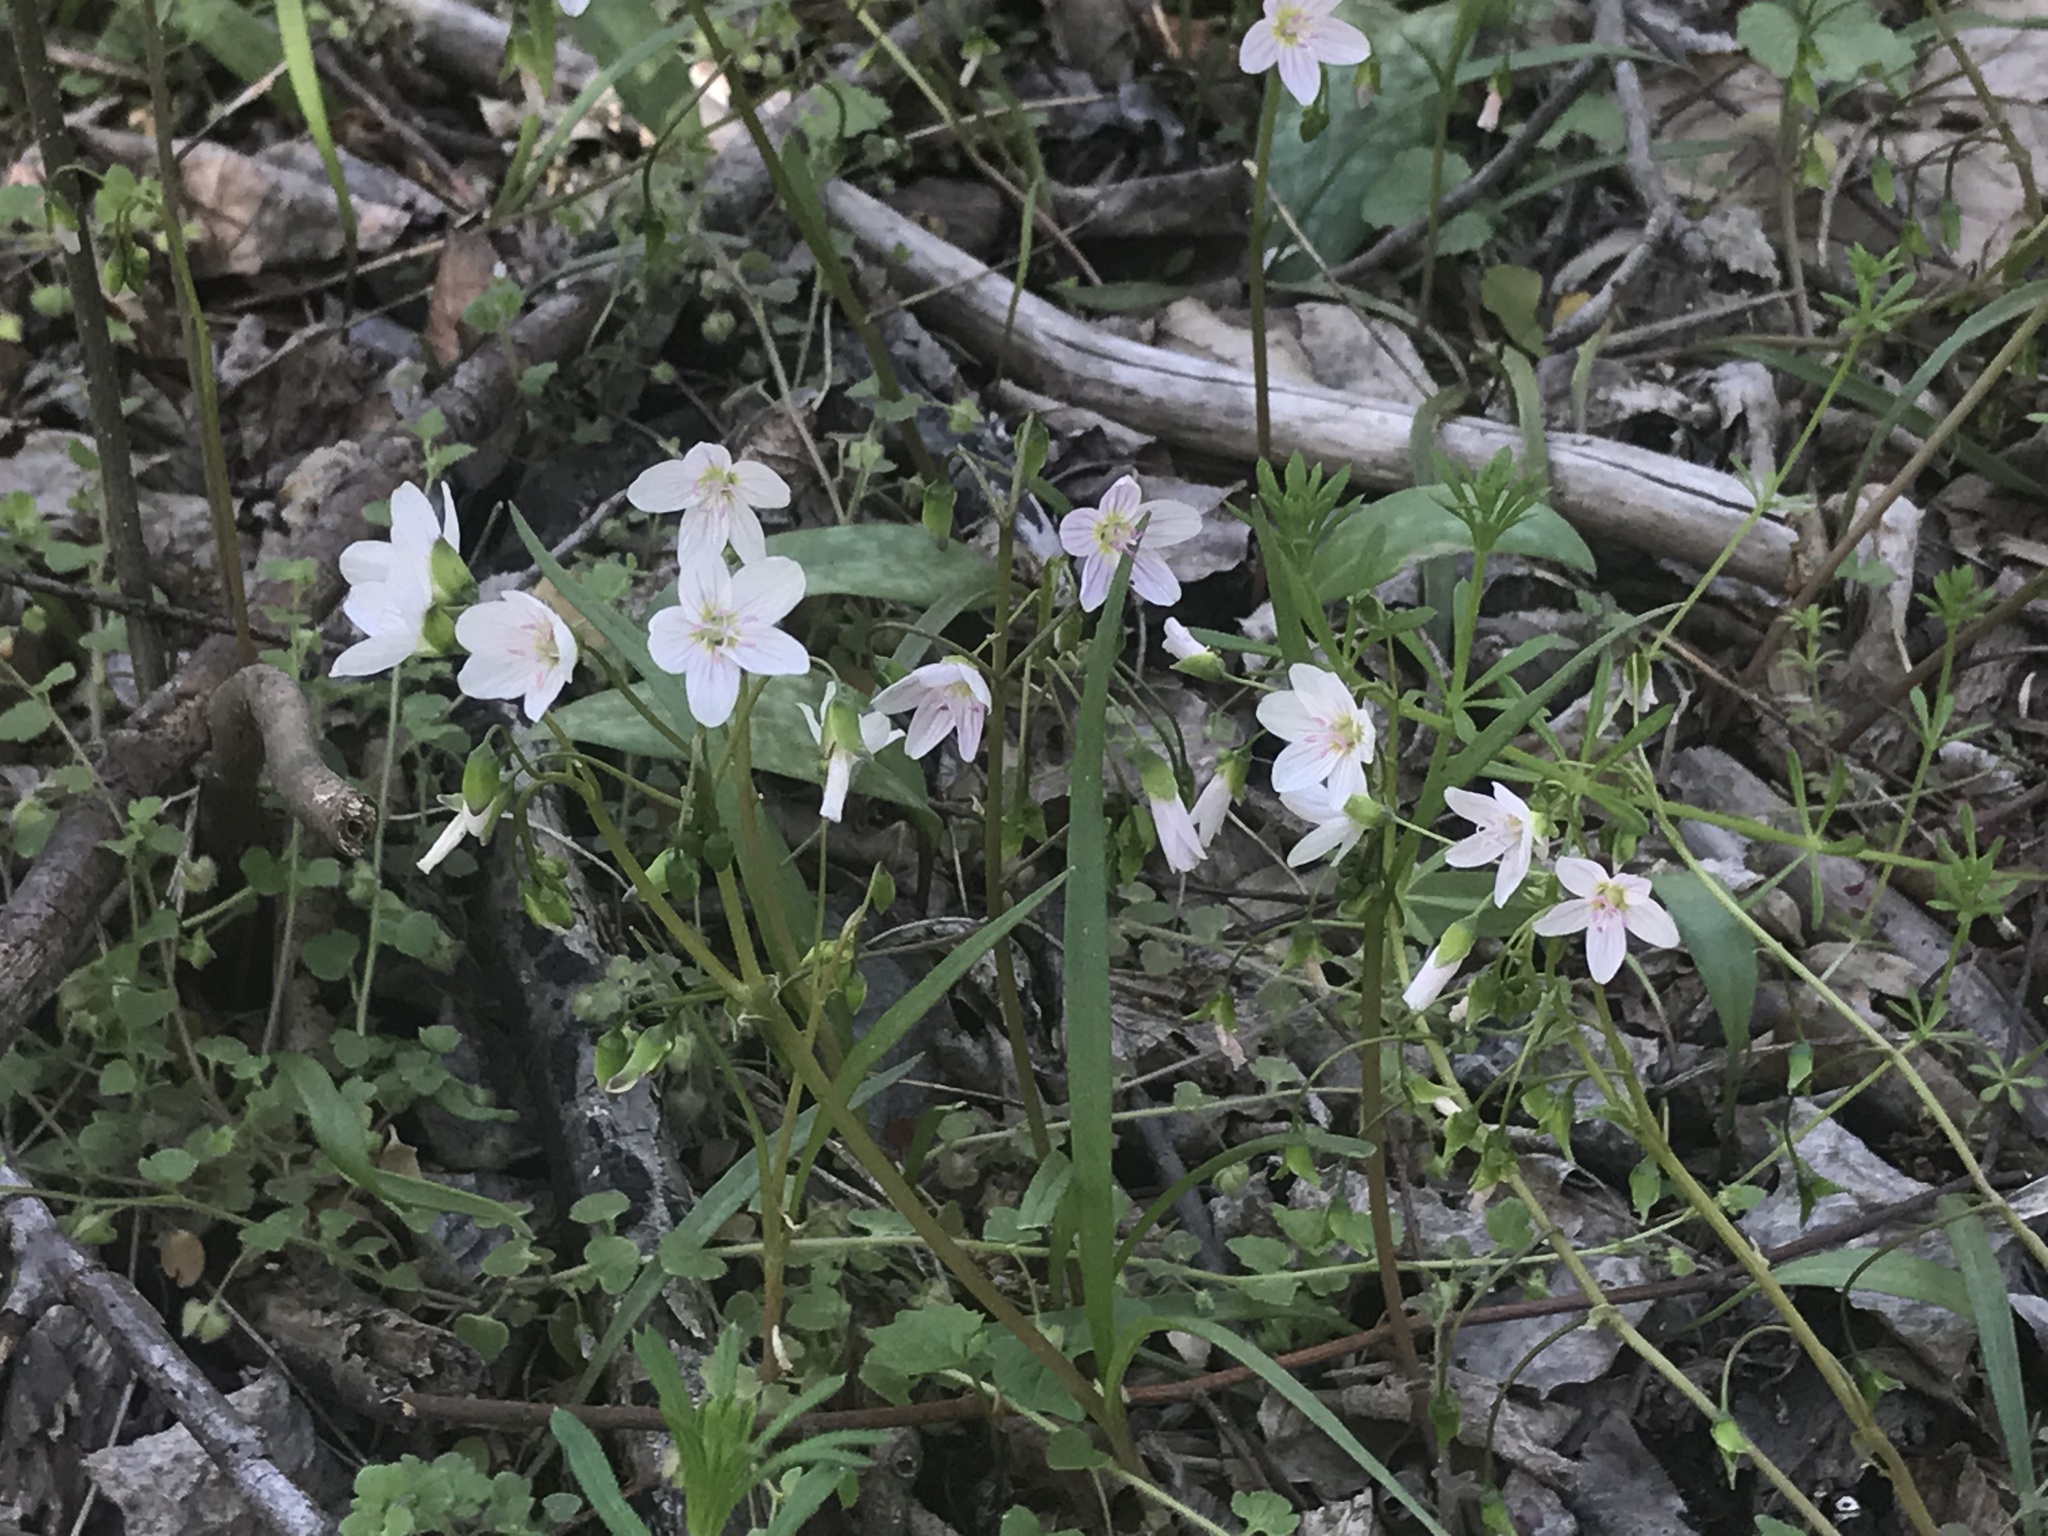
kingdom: Plantae
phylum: Tracheophyta
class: Magnoliopsida
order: Caryophyllales
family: Montiaceae
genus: Claytonia
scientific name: Claytonia virginica
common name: Virginia springbeauty
